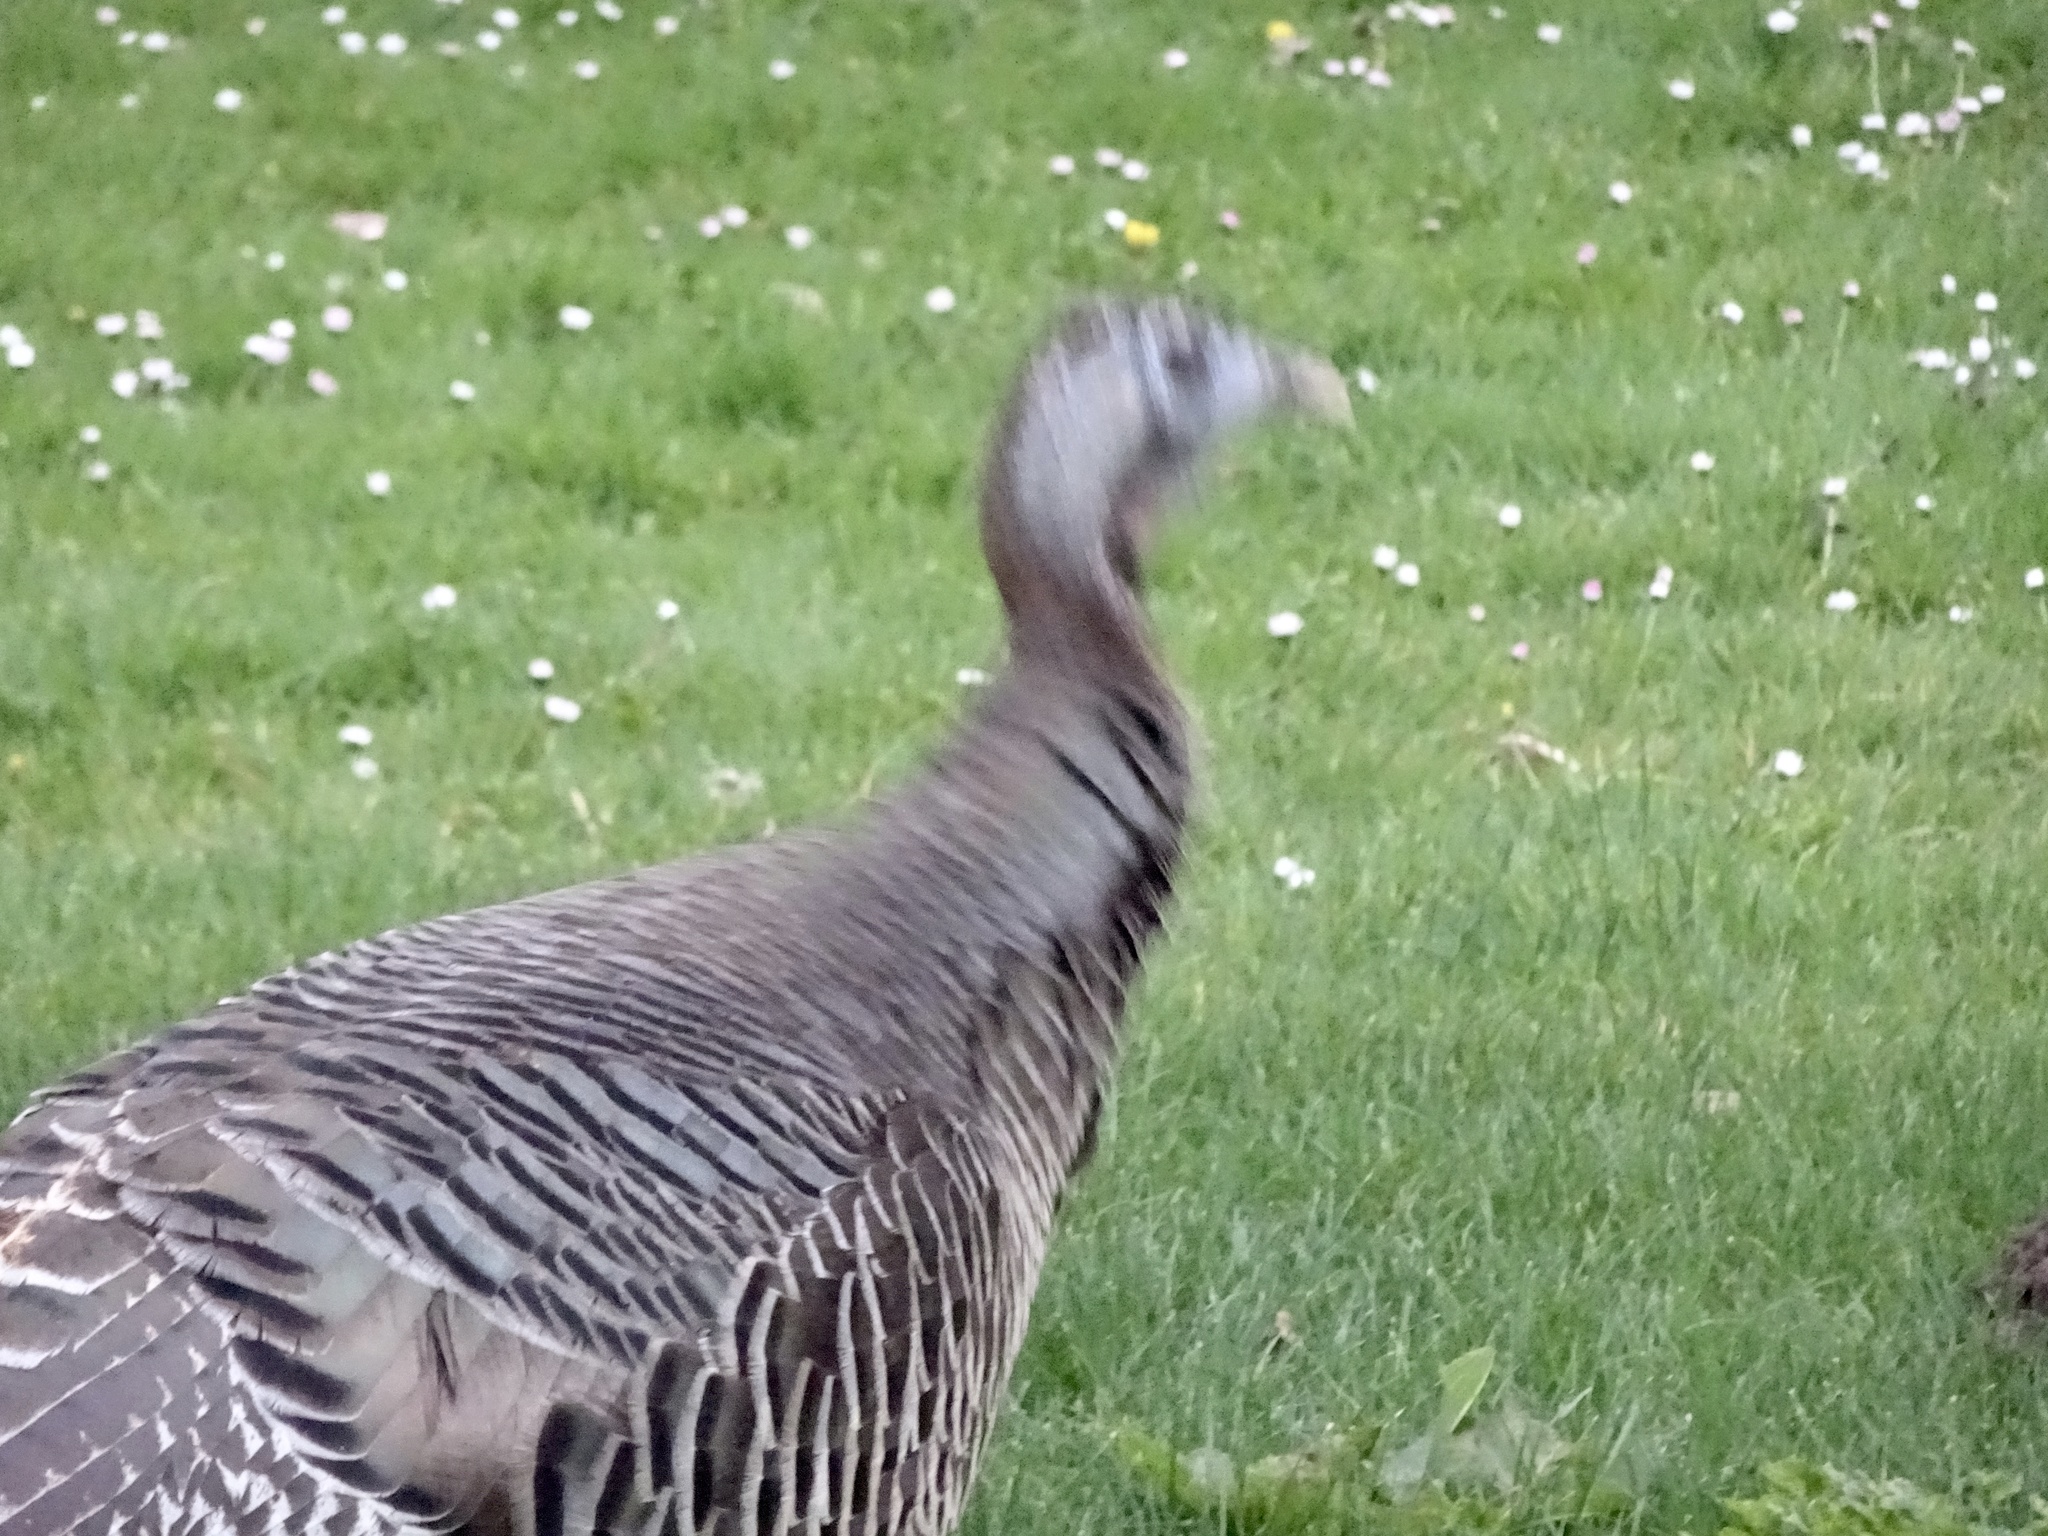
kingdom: Animalia
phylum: Chordata
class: Aves
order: Galliformes
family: Phasianidae
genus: Meleagris
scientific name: Meleagris gallopavo
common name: Wild turkey
